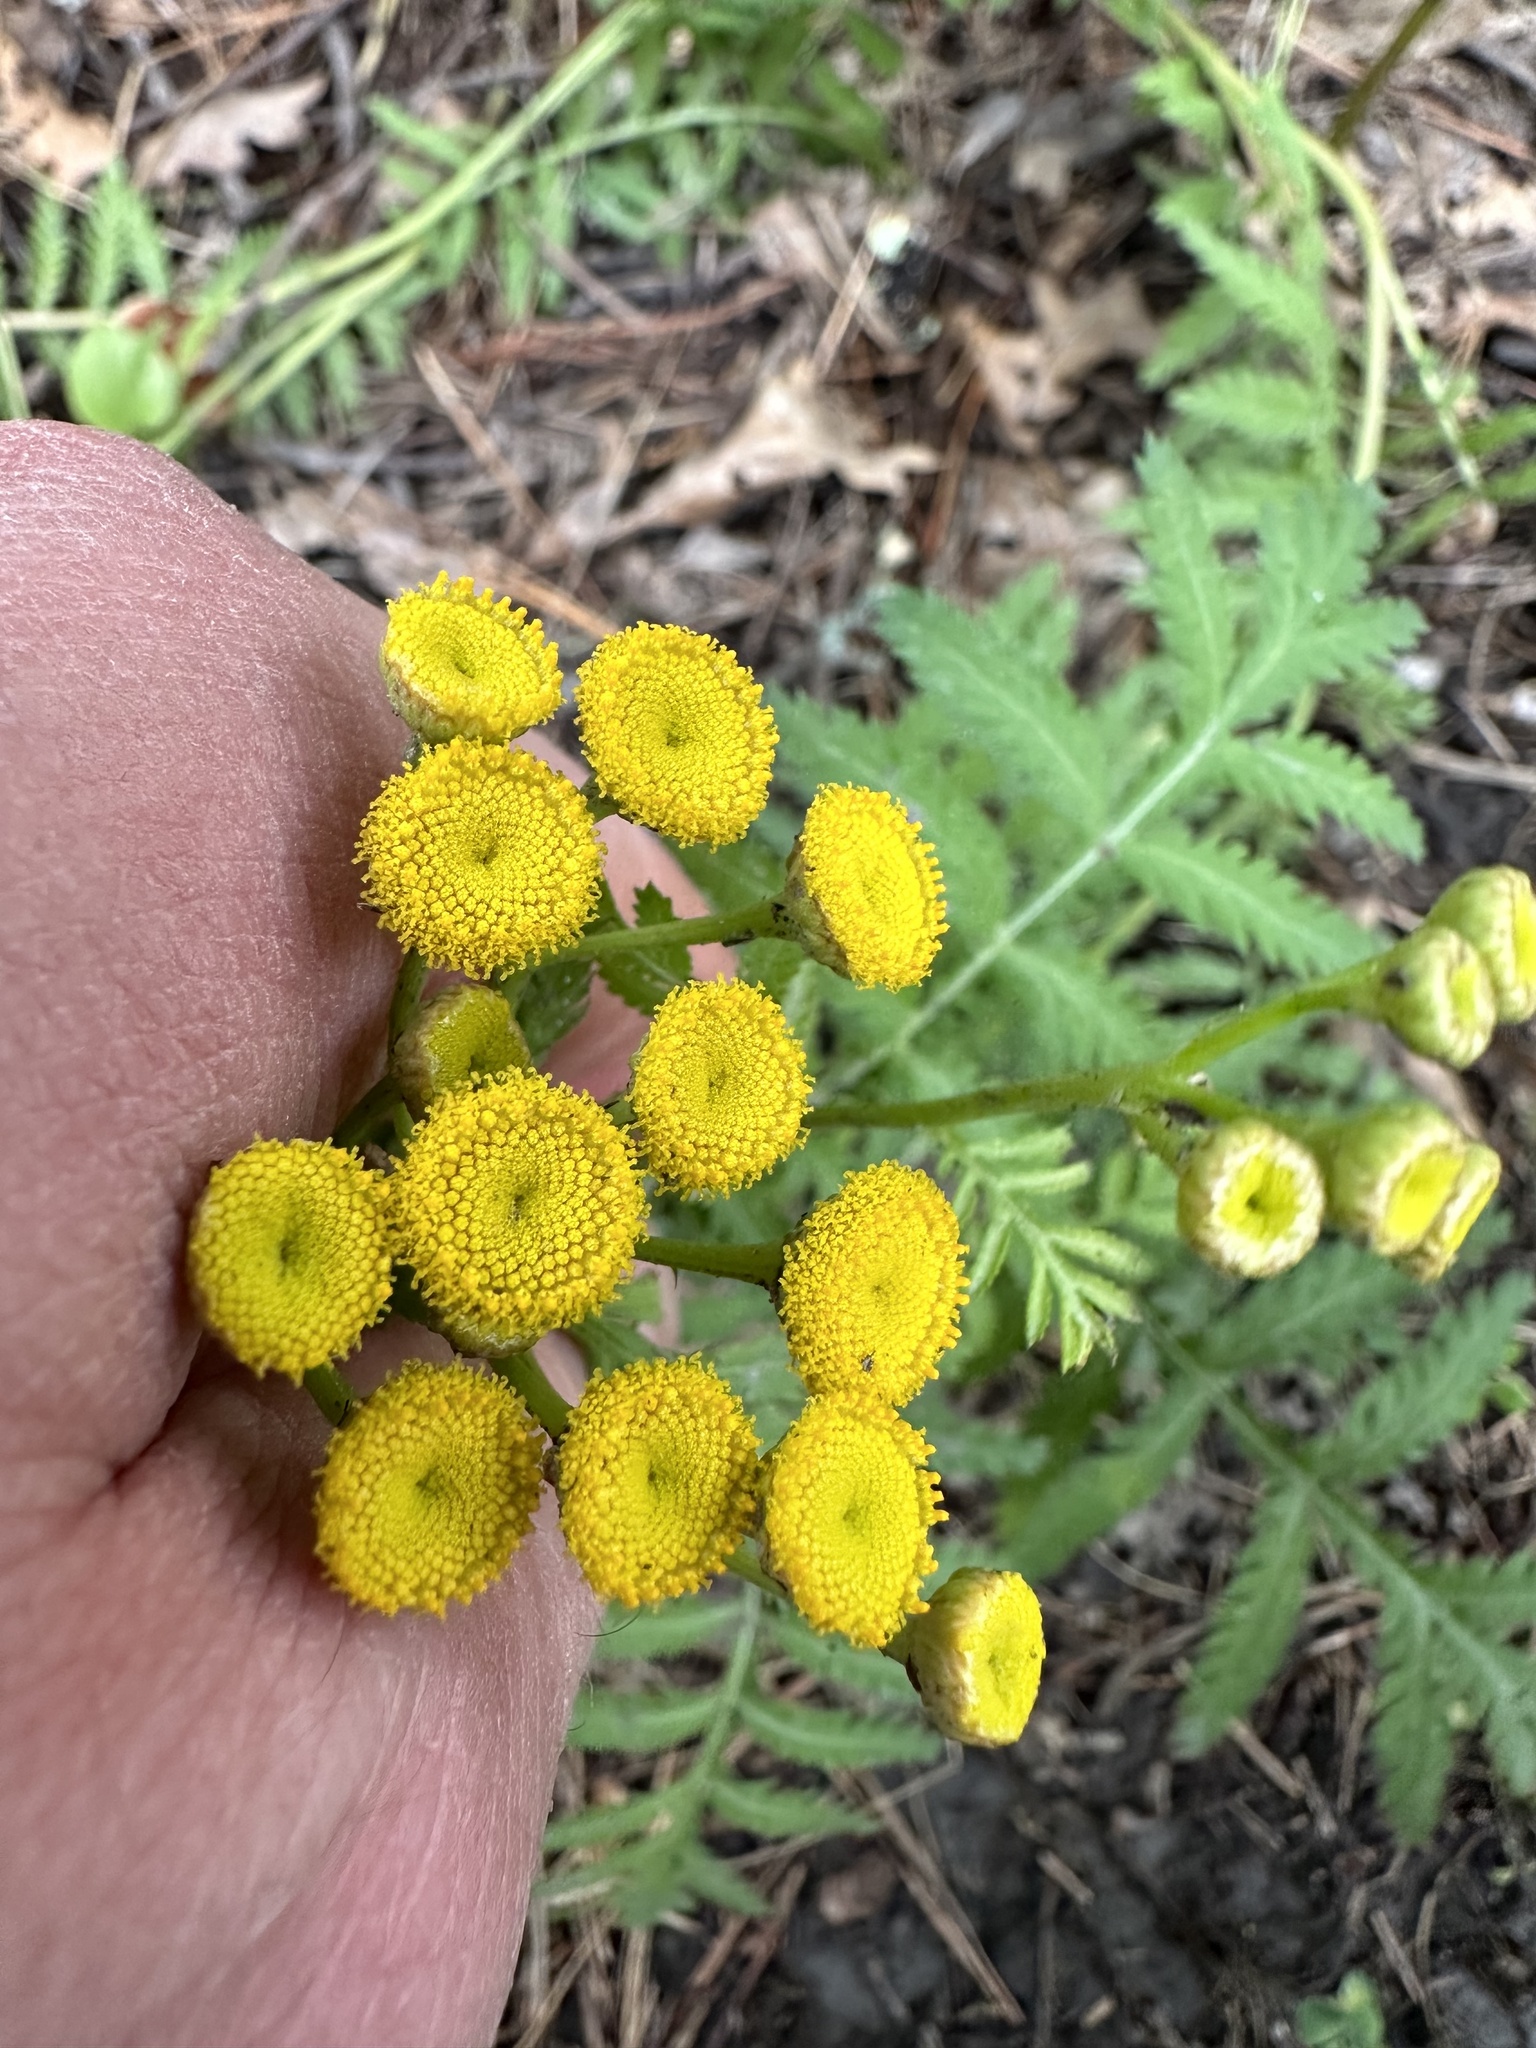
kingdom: Plantae
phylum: Tracheophyta
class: Magnoliopsida
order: Asterales
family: Asteraceae
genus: Tanacetum
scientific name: Tanacetum vulgare
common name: Common tansy
